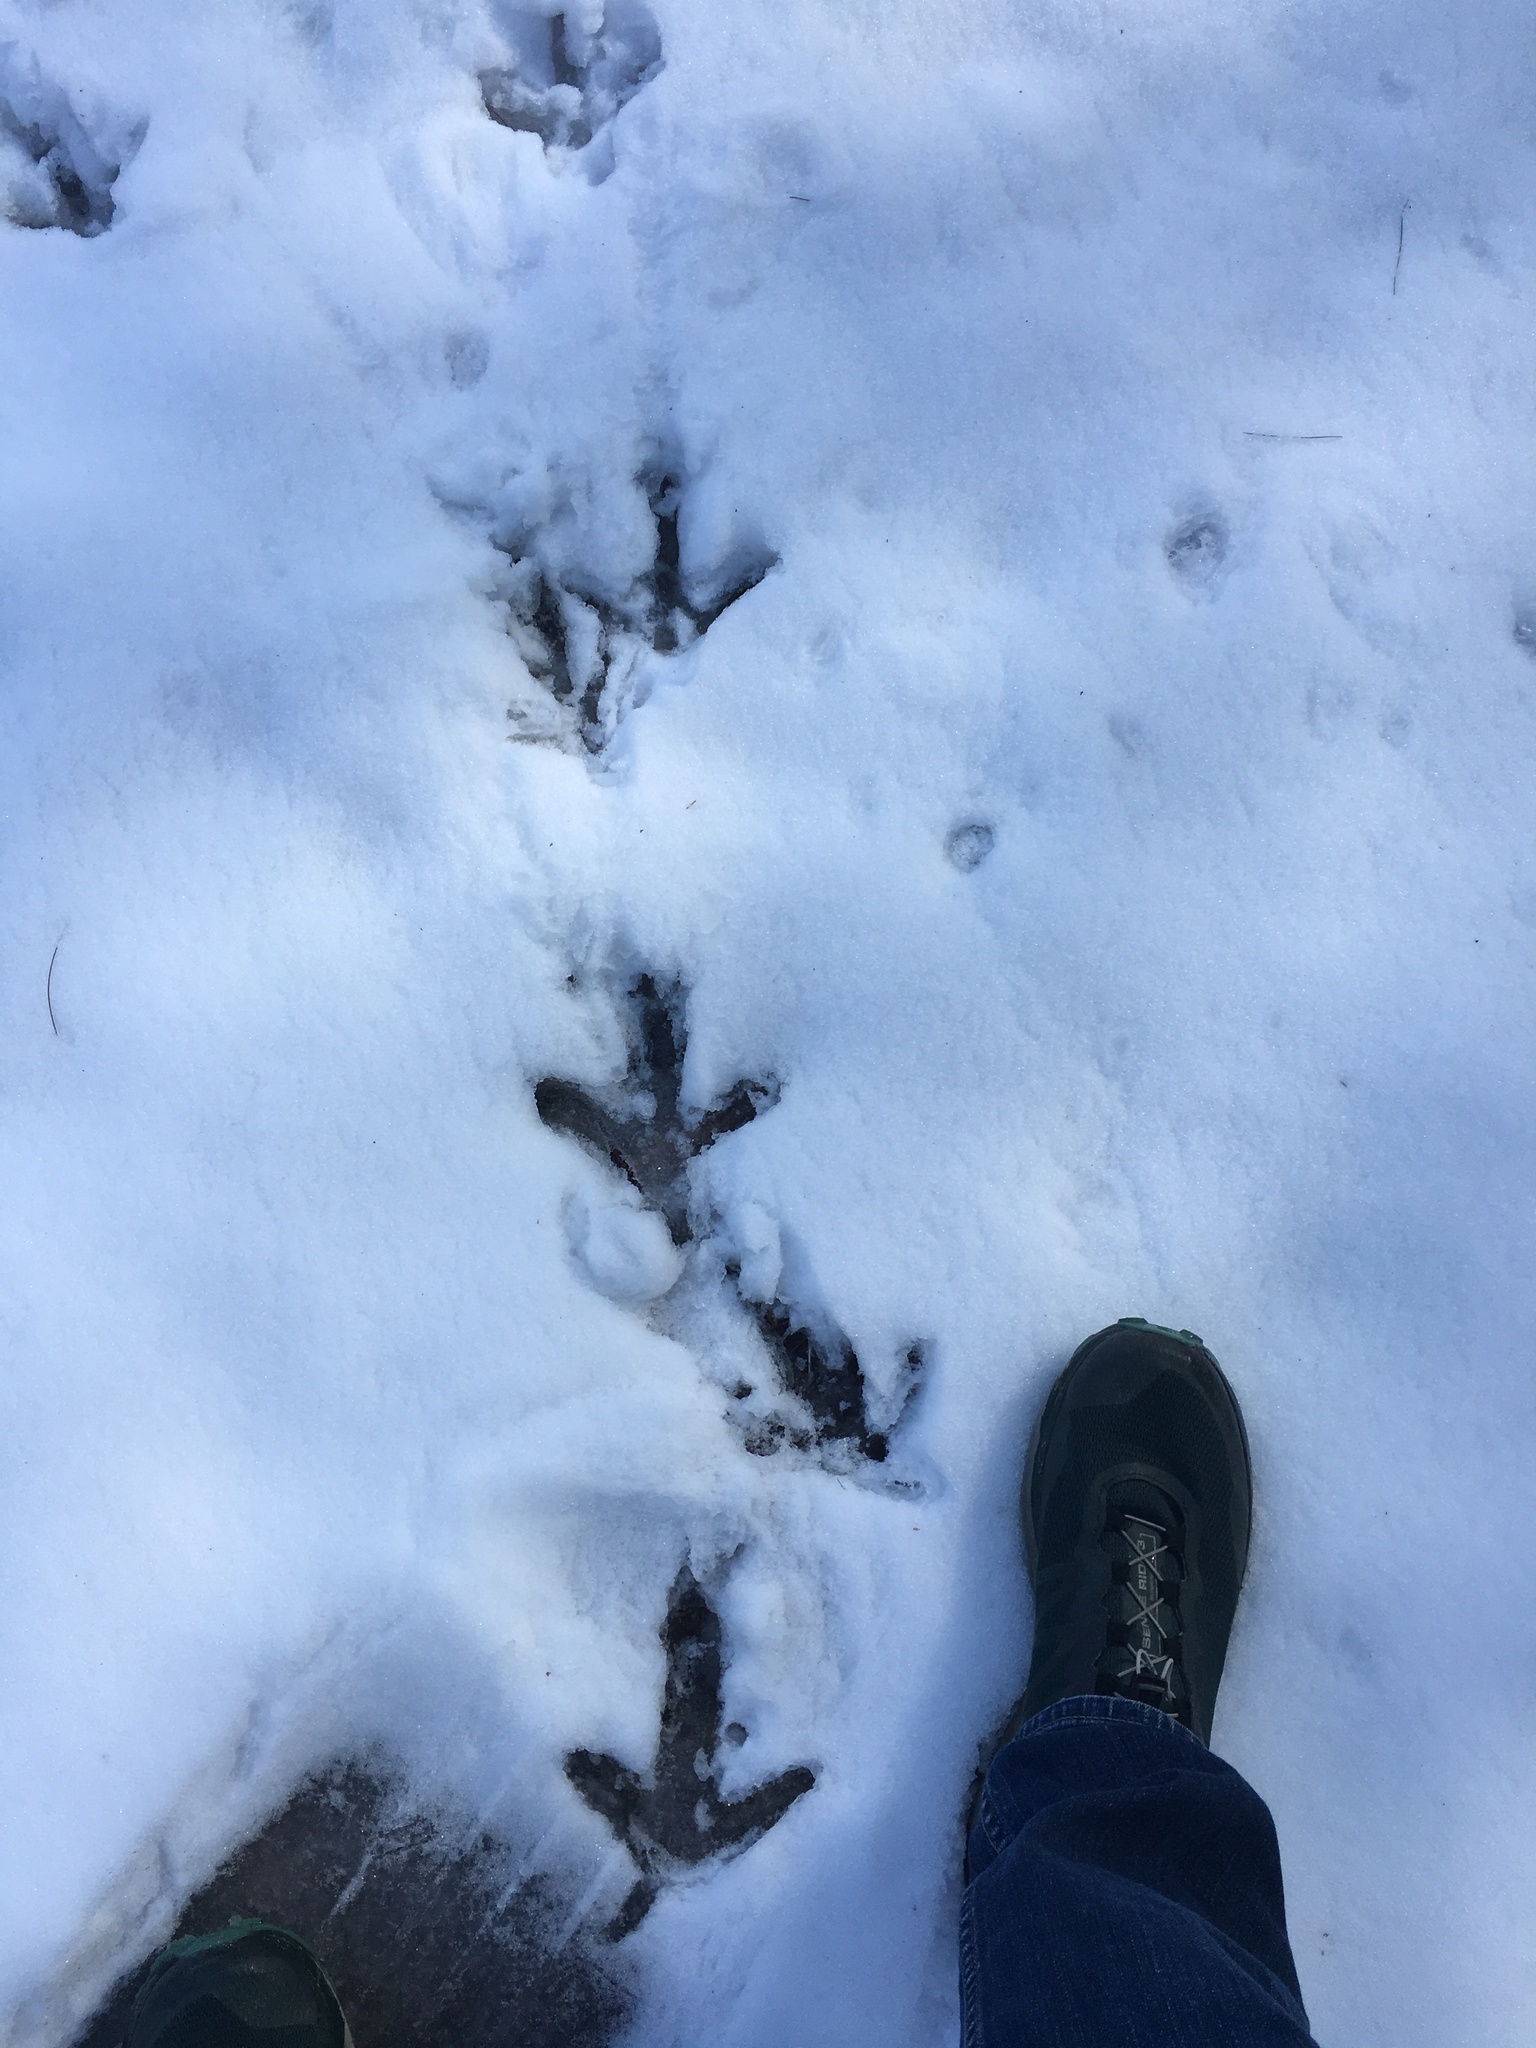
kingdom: Animalia
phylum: Chordata
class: Aves
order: Galliformes
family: Phasianidae
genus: Meleagris
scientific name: Meleagris gallopavo
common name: Wild turkey
